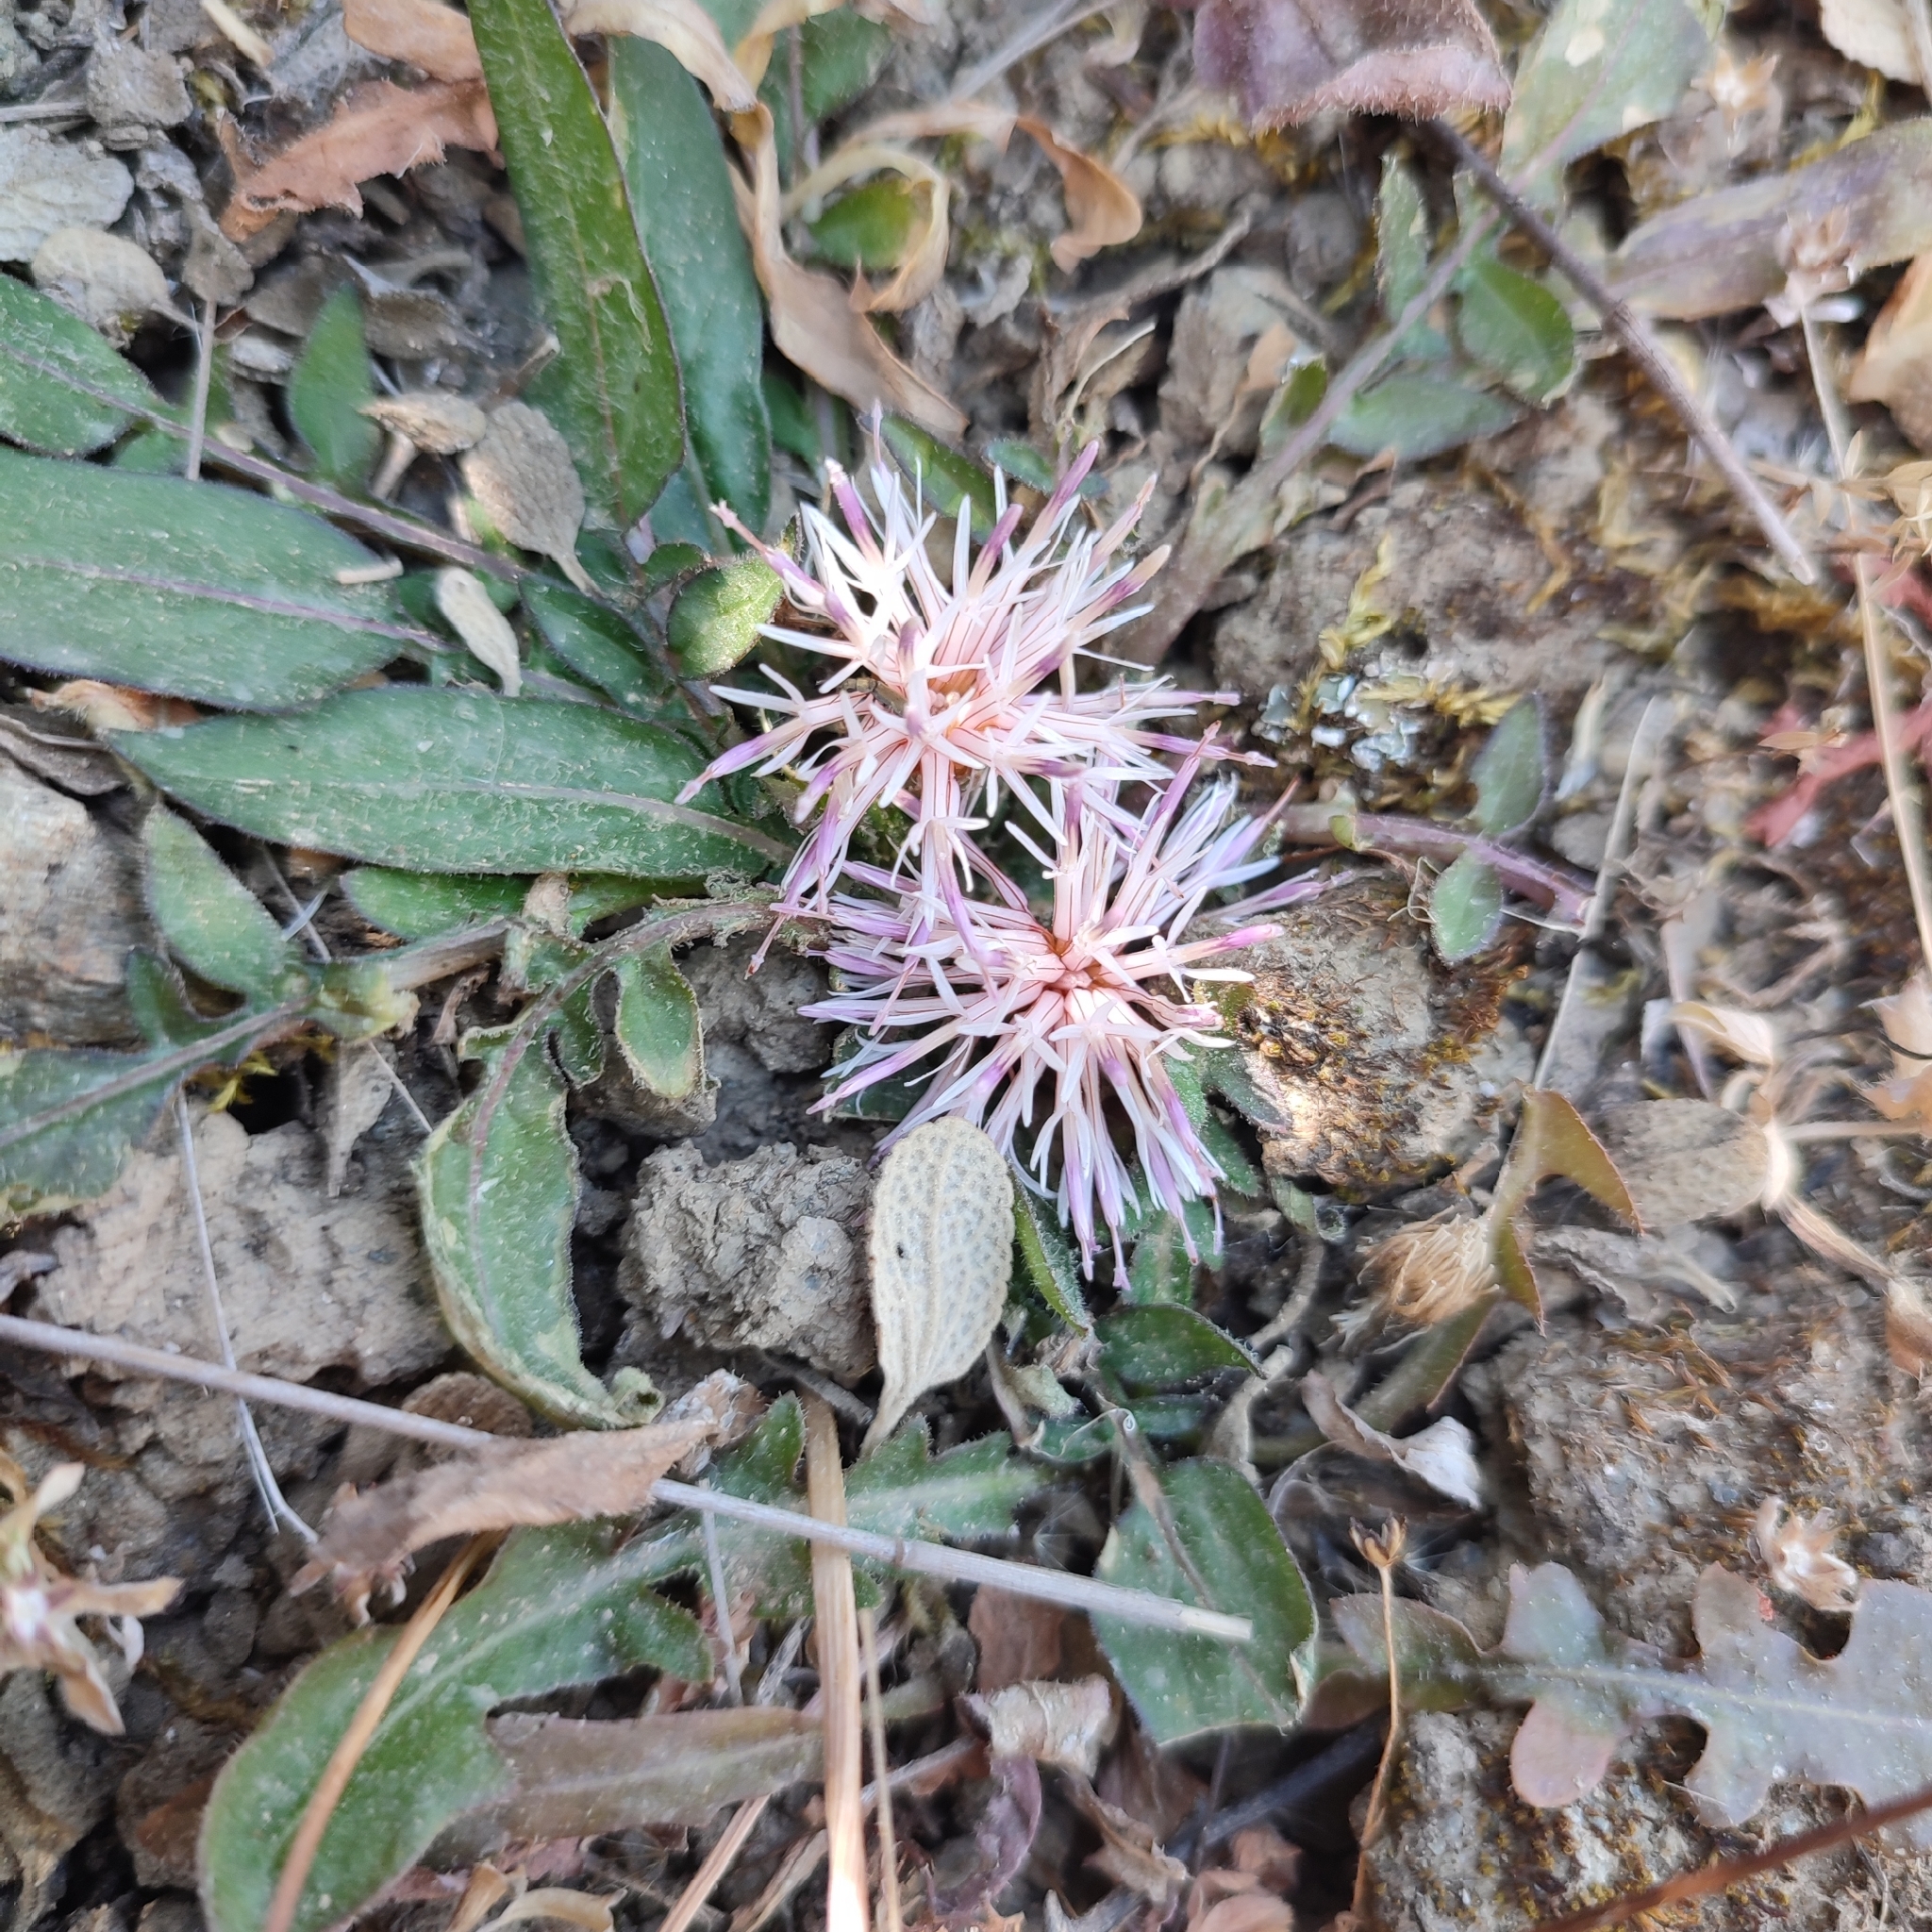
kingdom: Plantae
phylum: Tracheophyta
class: Magnoliopsida
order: Asterales
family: Asteraceae
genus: Centaurea
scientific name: Centaurea raphanina
